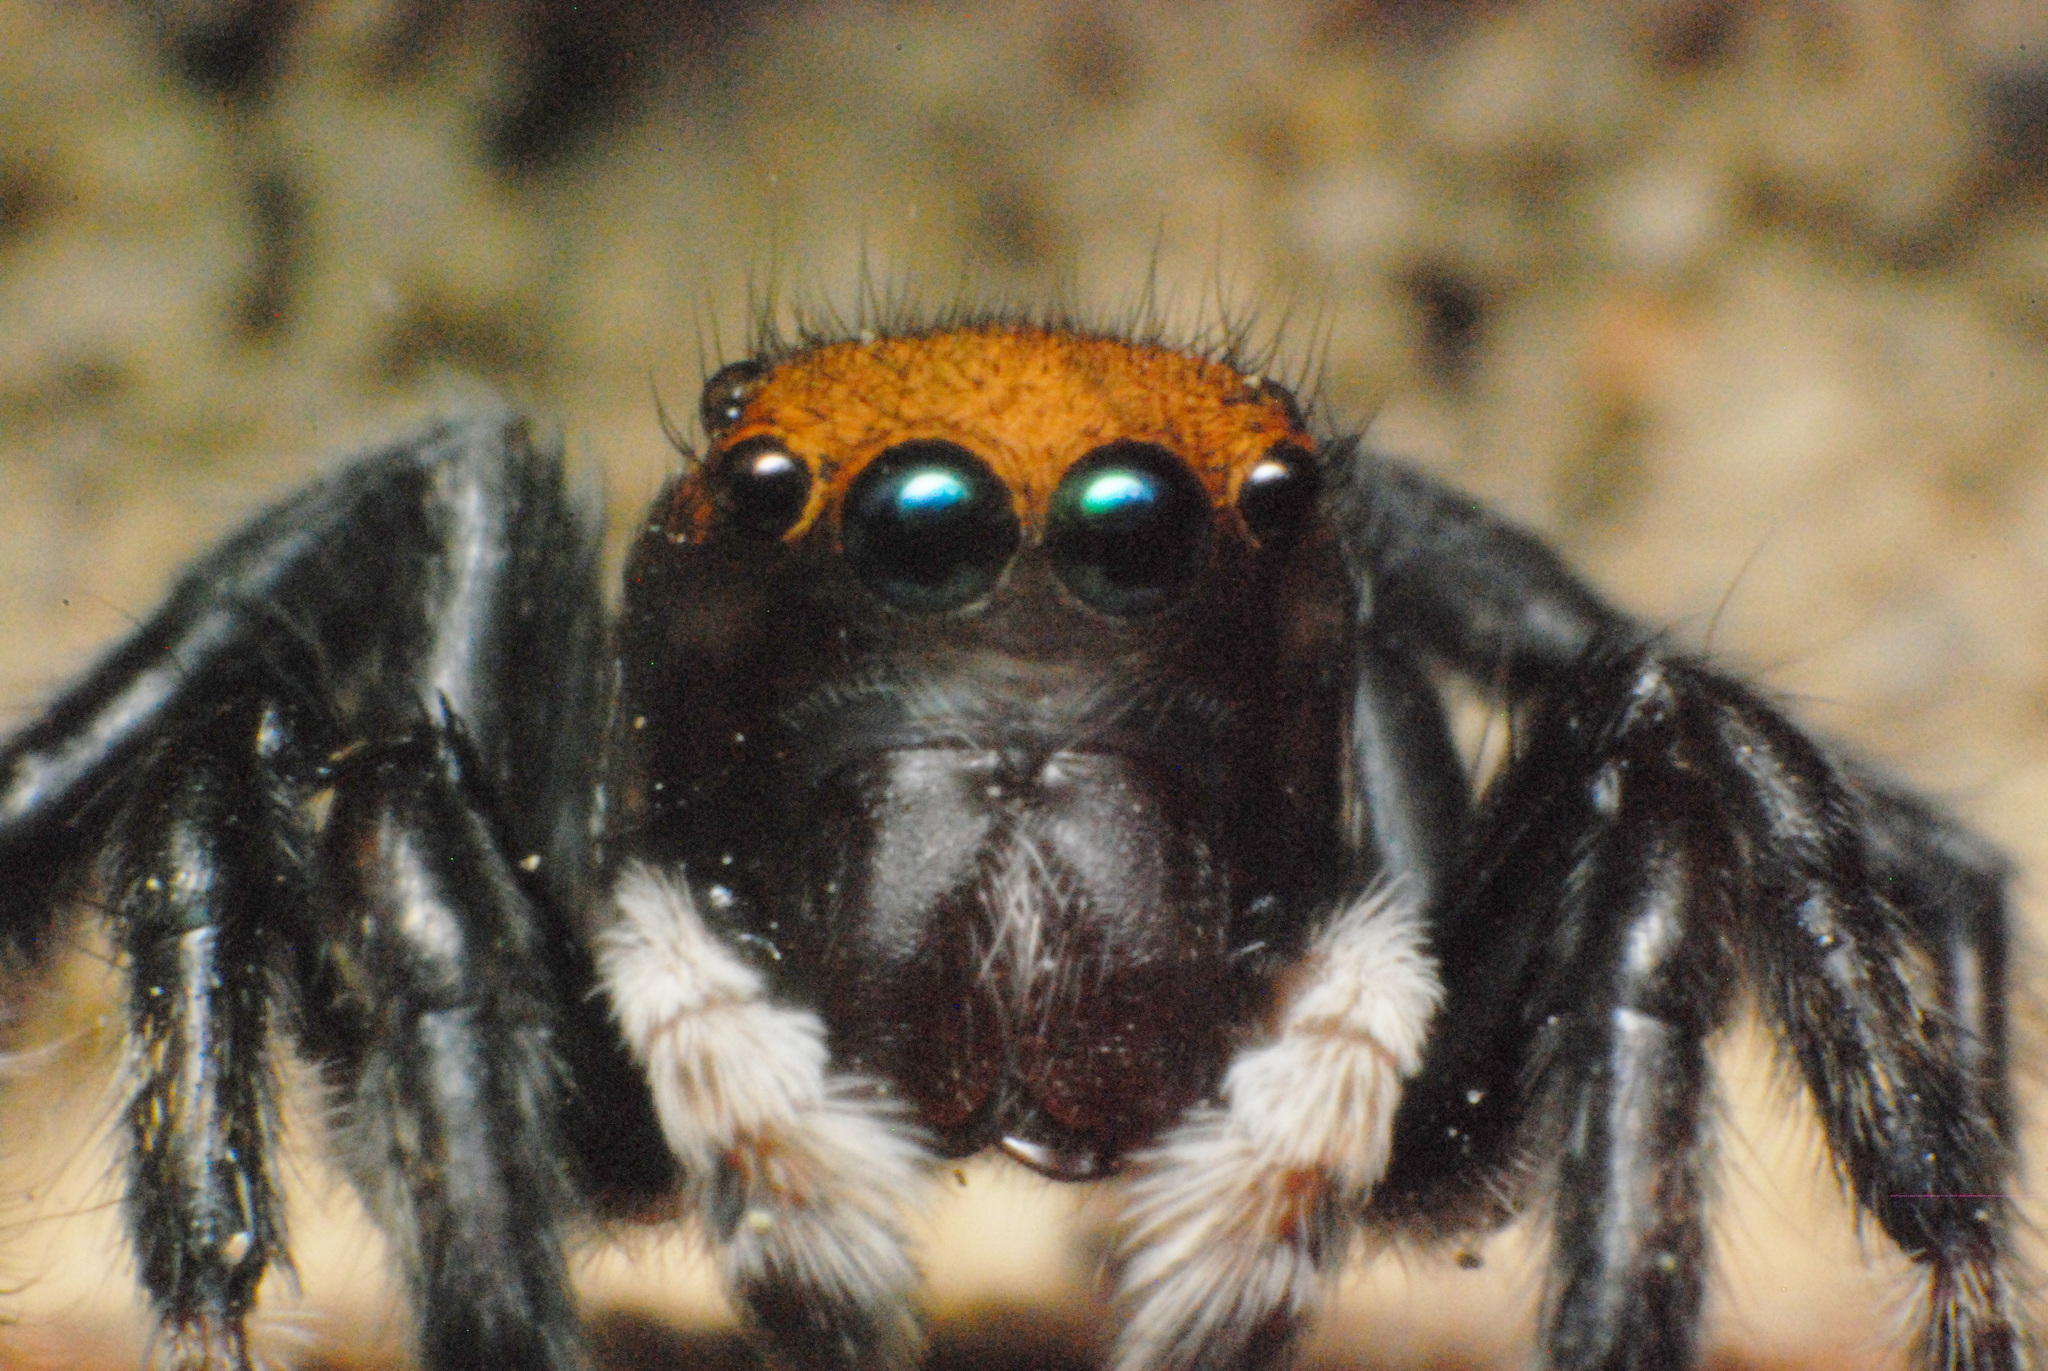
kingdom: Animalia
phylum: Arthropoda
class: Arachnida
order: Araneae
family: Salticidae
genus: Maratus
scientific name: Maratus griseus
